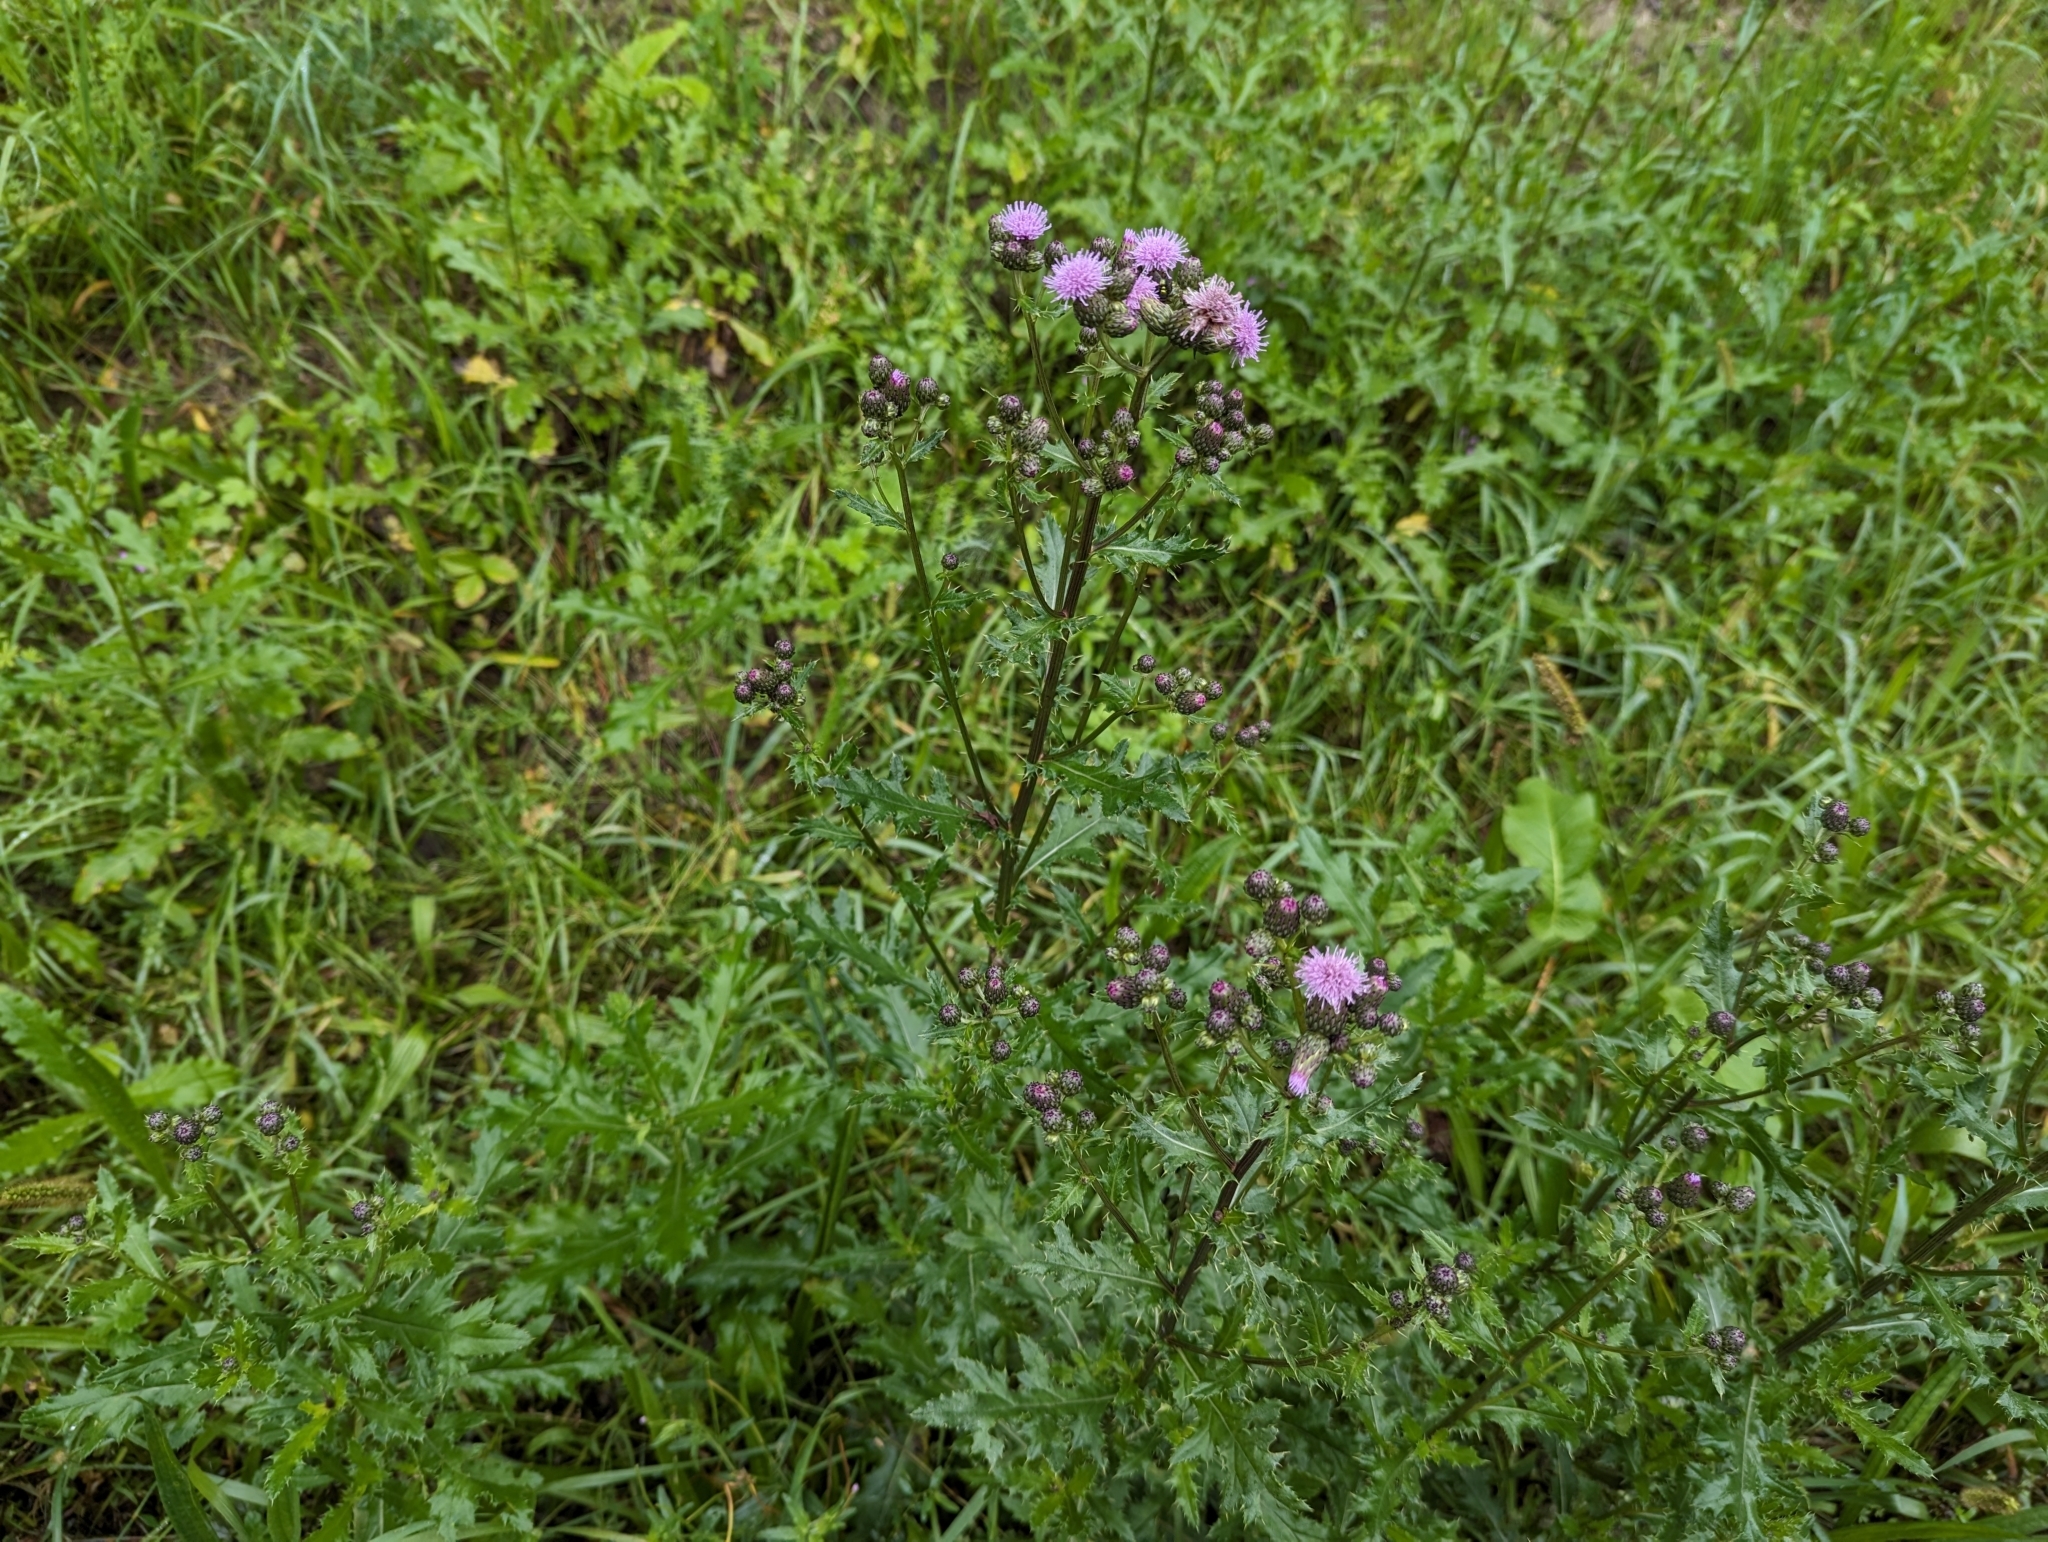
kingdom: Plantae
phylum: Tracheophyta
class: Magnoliopsida
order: Asterales
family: Asteraceae
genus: Cirsium
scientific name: Cirsium arvense
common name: Creeping thistle
